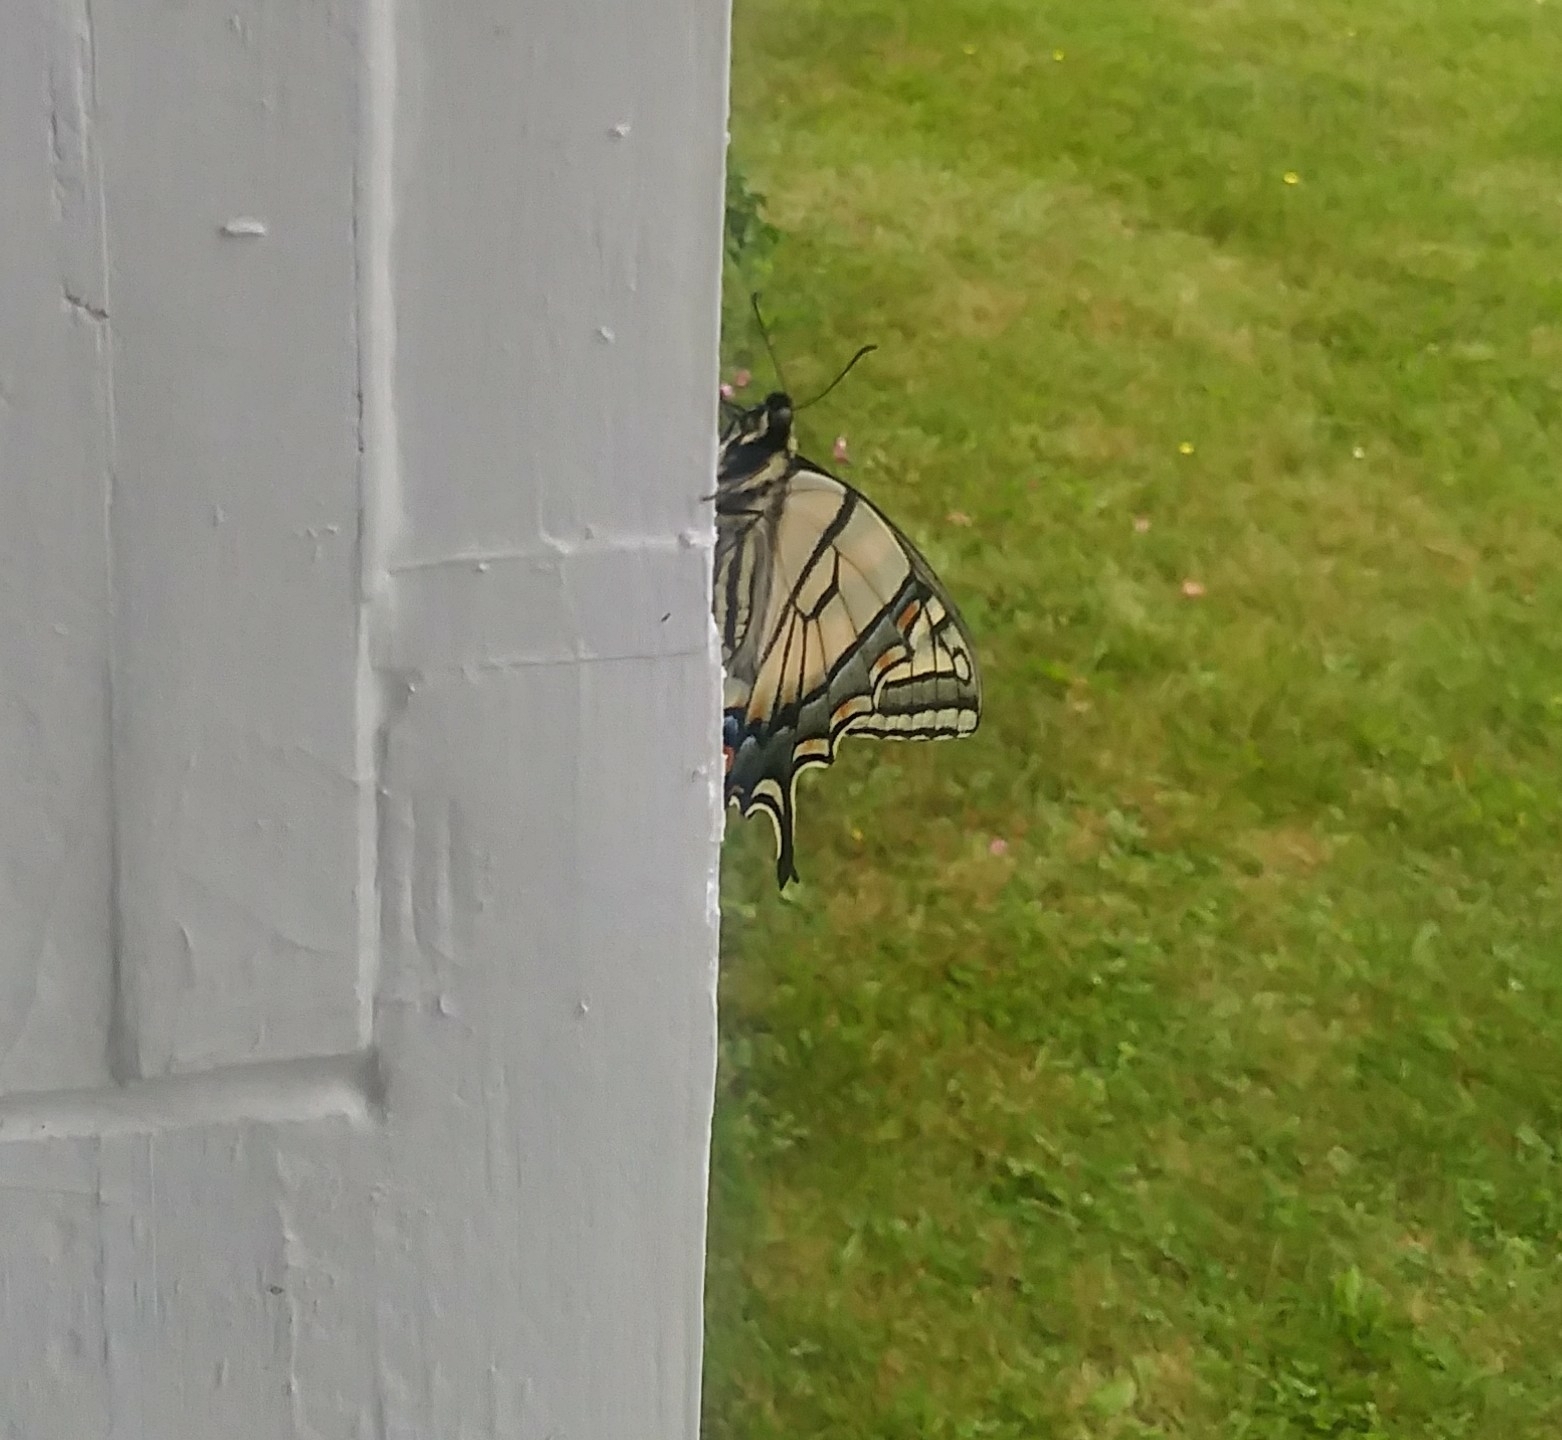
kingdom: Animalia
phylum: Arthropoda
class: Insecta
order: Lepidoptera
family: Papilionidae
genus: Papilio
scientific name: Papilio canadensis
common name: Canadian tiger swallowtail
